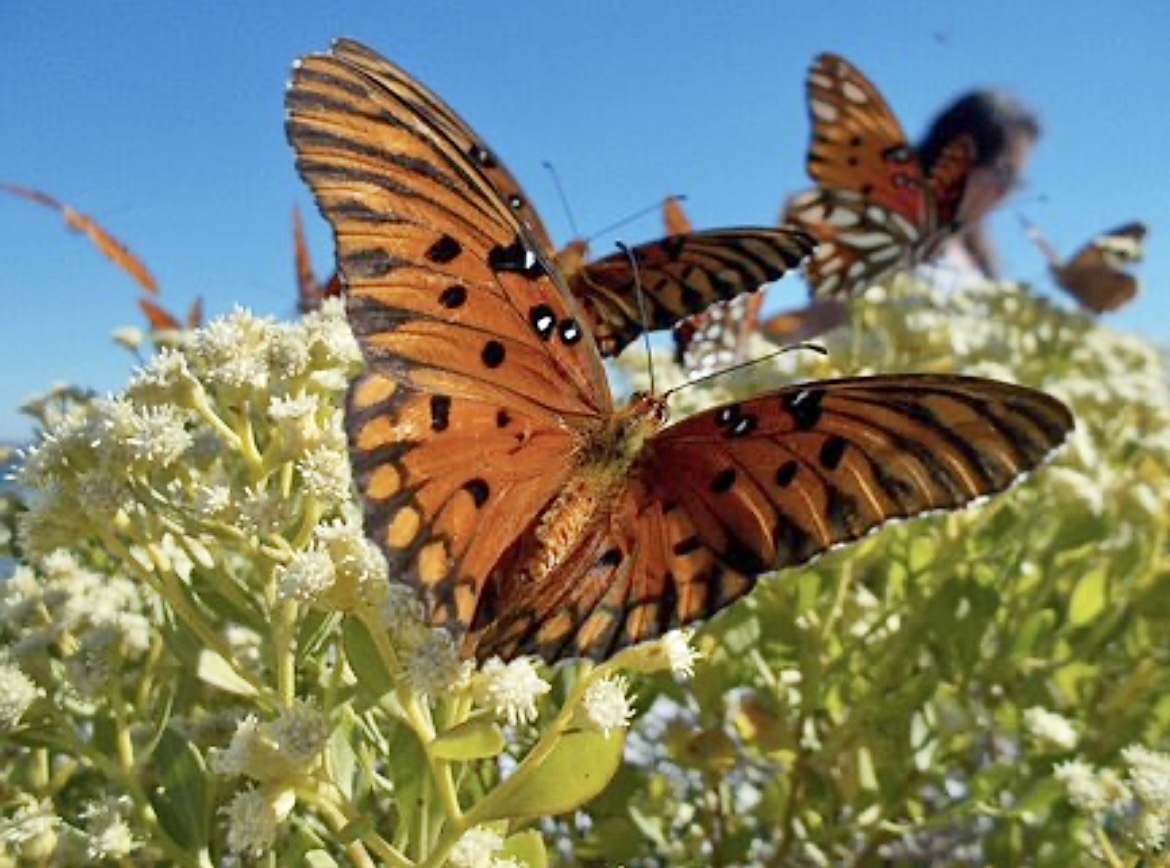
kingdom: Animalia
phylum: Arthropoda
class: Insecta
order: Lepidoptera
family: Nymphalidae
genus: Dione
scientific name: Dione vanillae
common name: Gulf fritillary
